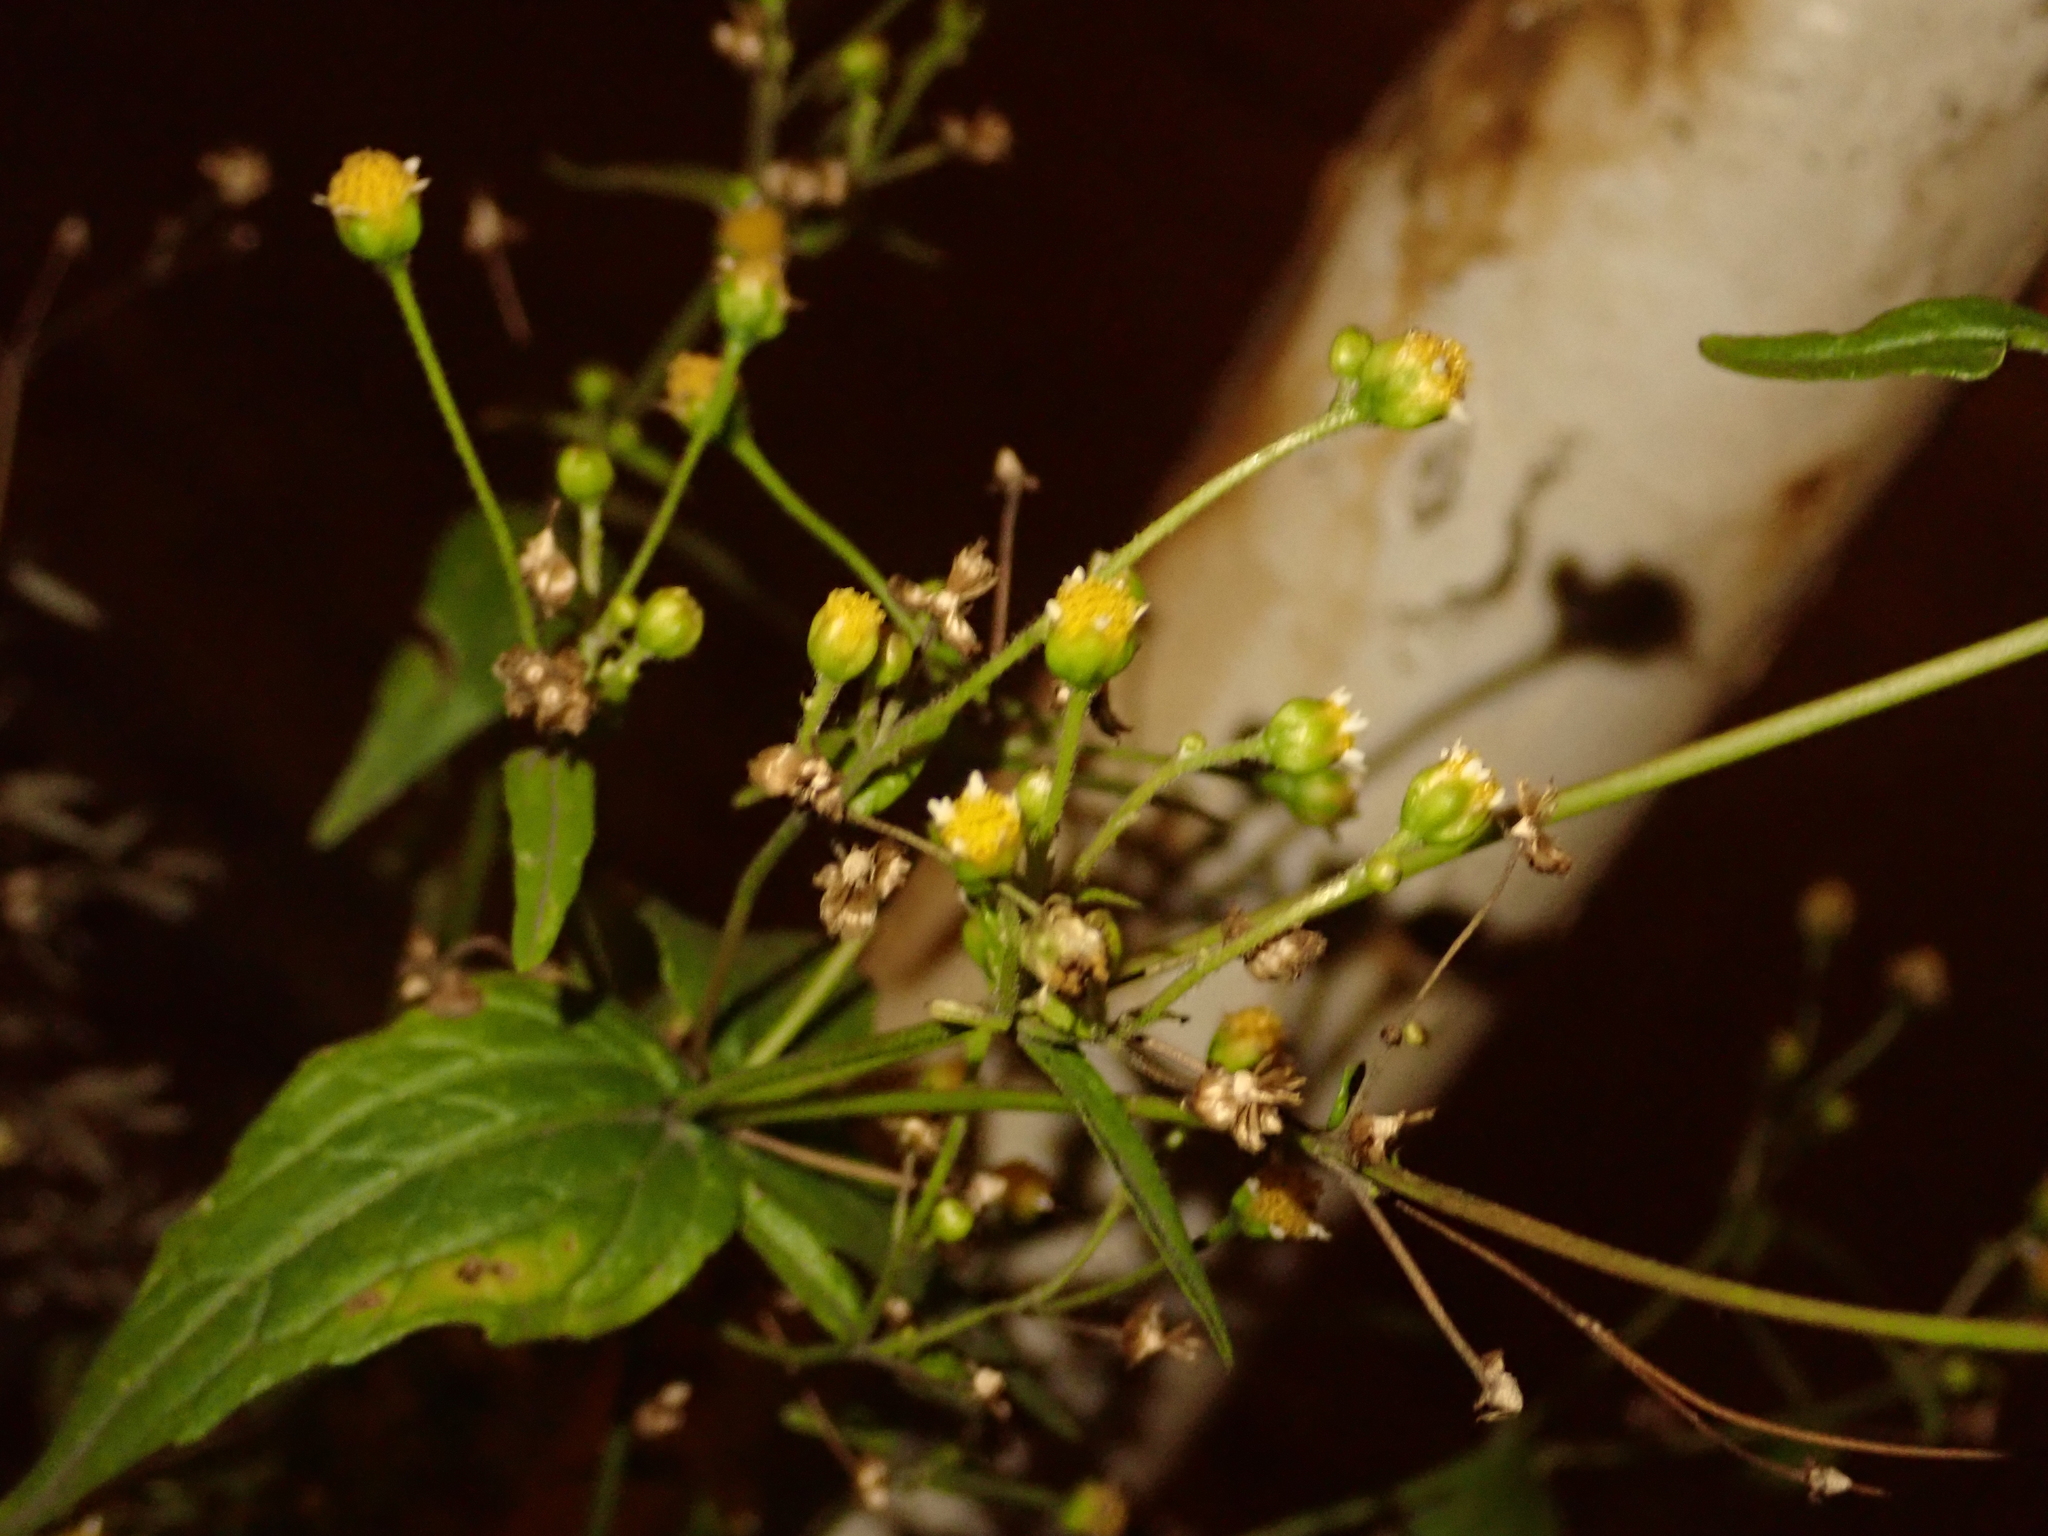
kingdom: Plantae
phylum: Tracheophyta
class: Magnoliopsida
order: Asterales
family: Asteraceae
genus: Galinsoga
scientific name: Galinsoga parviflora
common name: Gallant soldier
